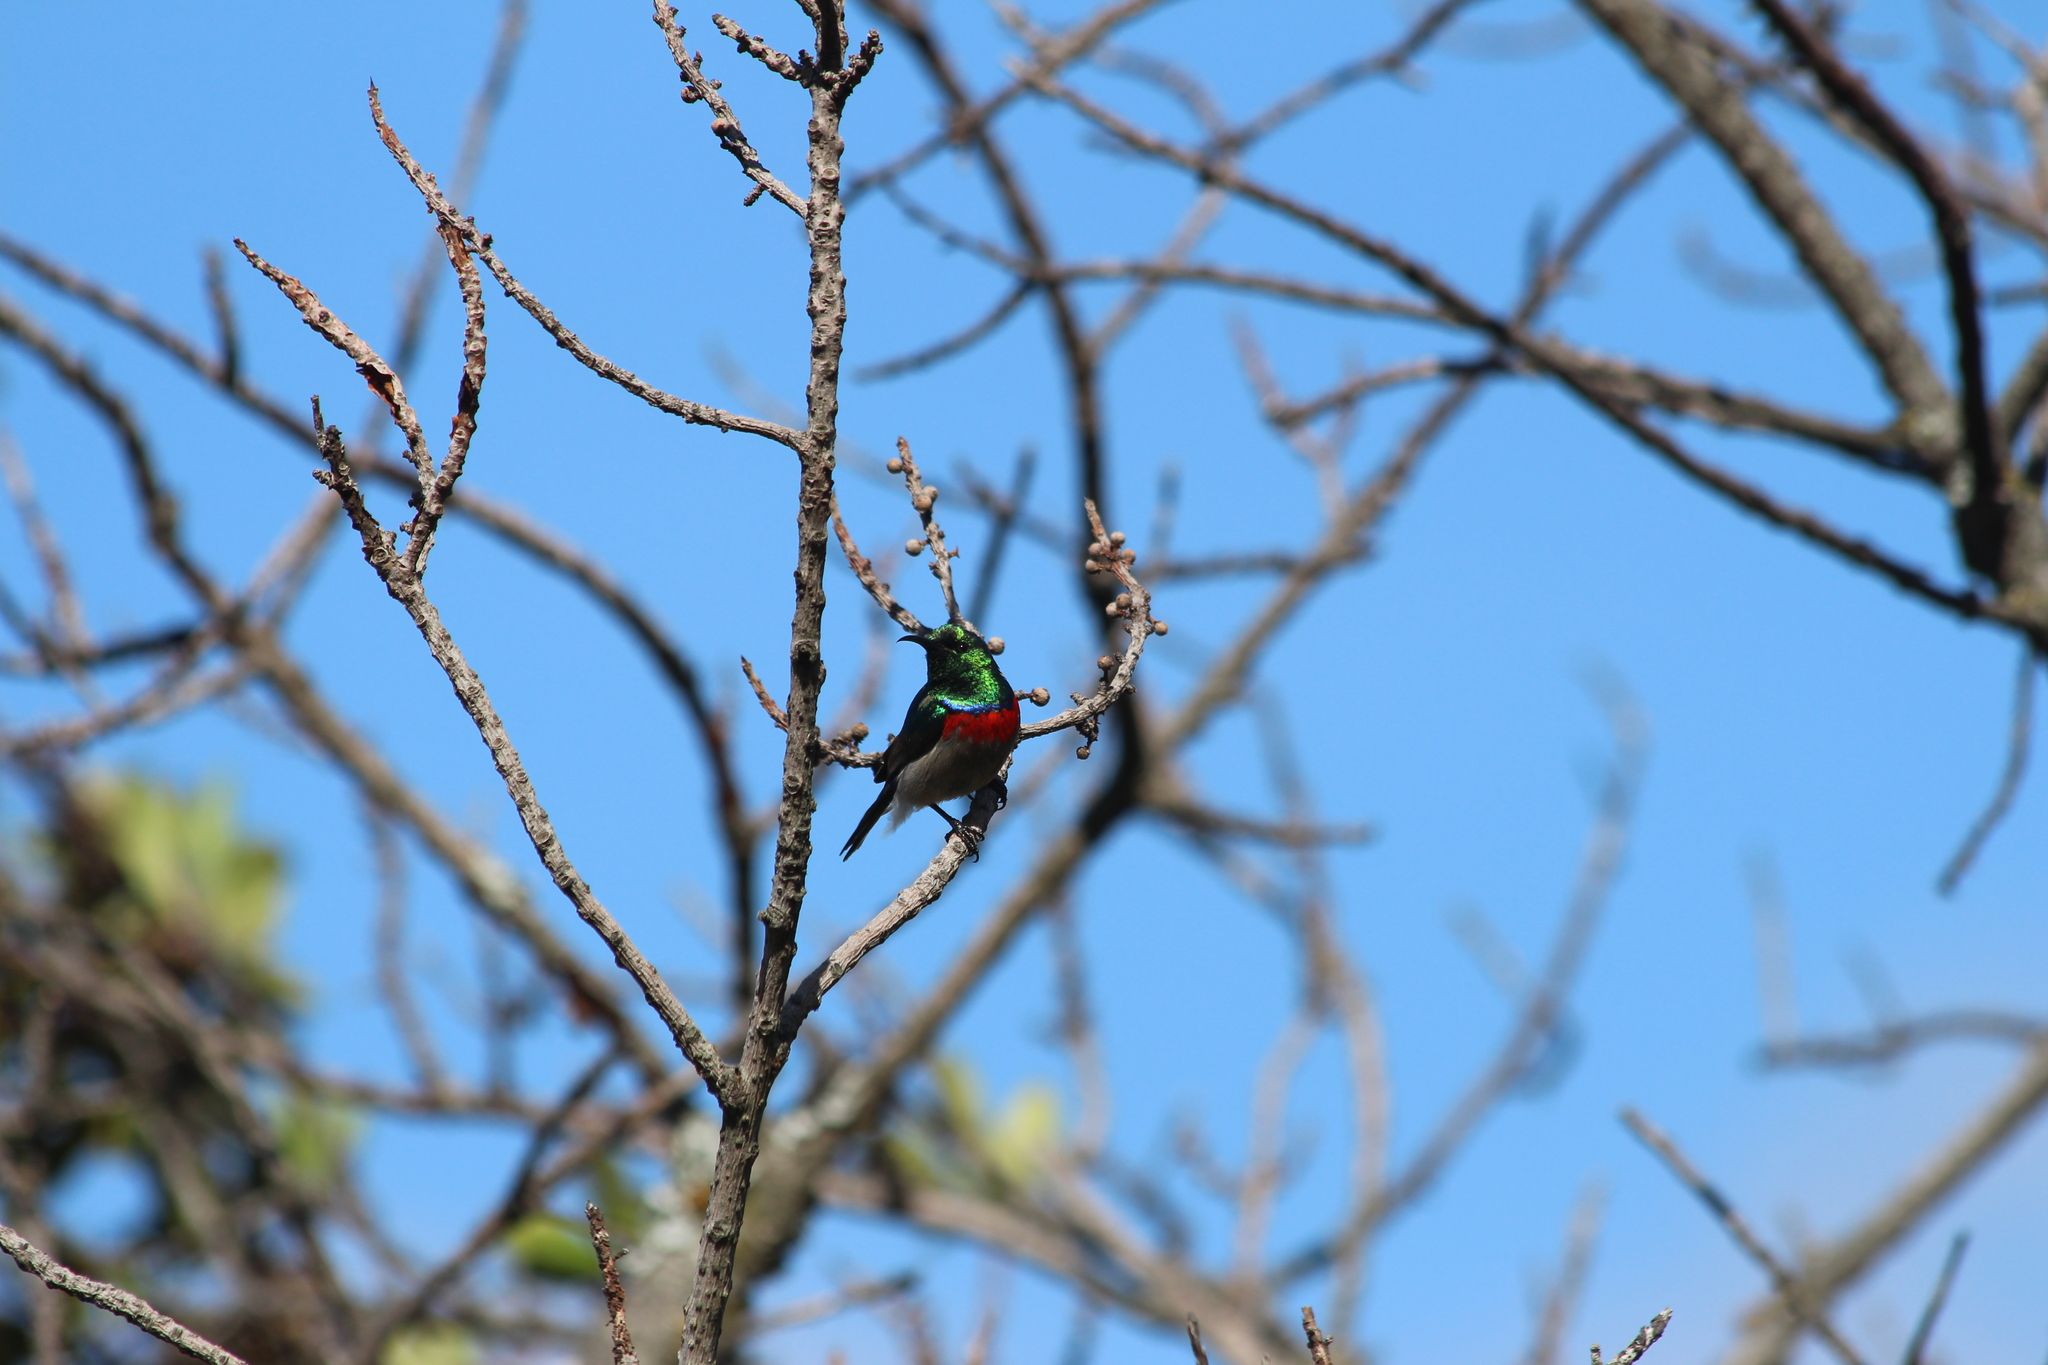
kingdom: Animalia
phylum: Chordata
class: Aves
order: Passeriformes
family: Nectariniidae
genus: Cinnyris
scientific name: Cinnyris chalybeus
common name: Southern double-collared sunbird
